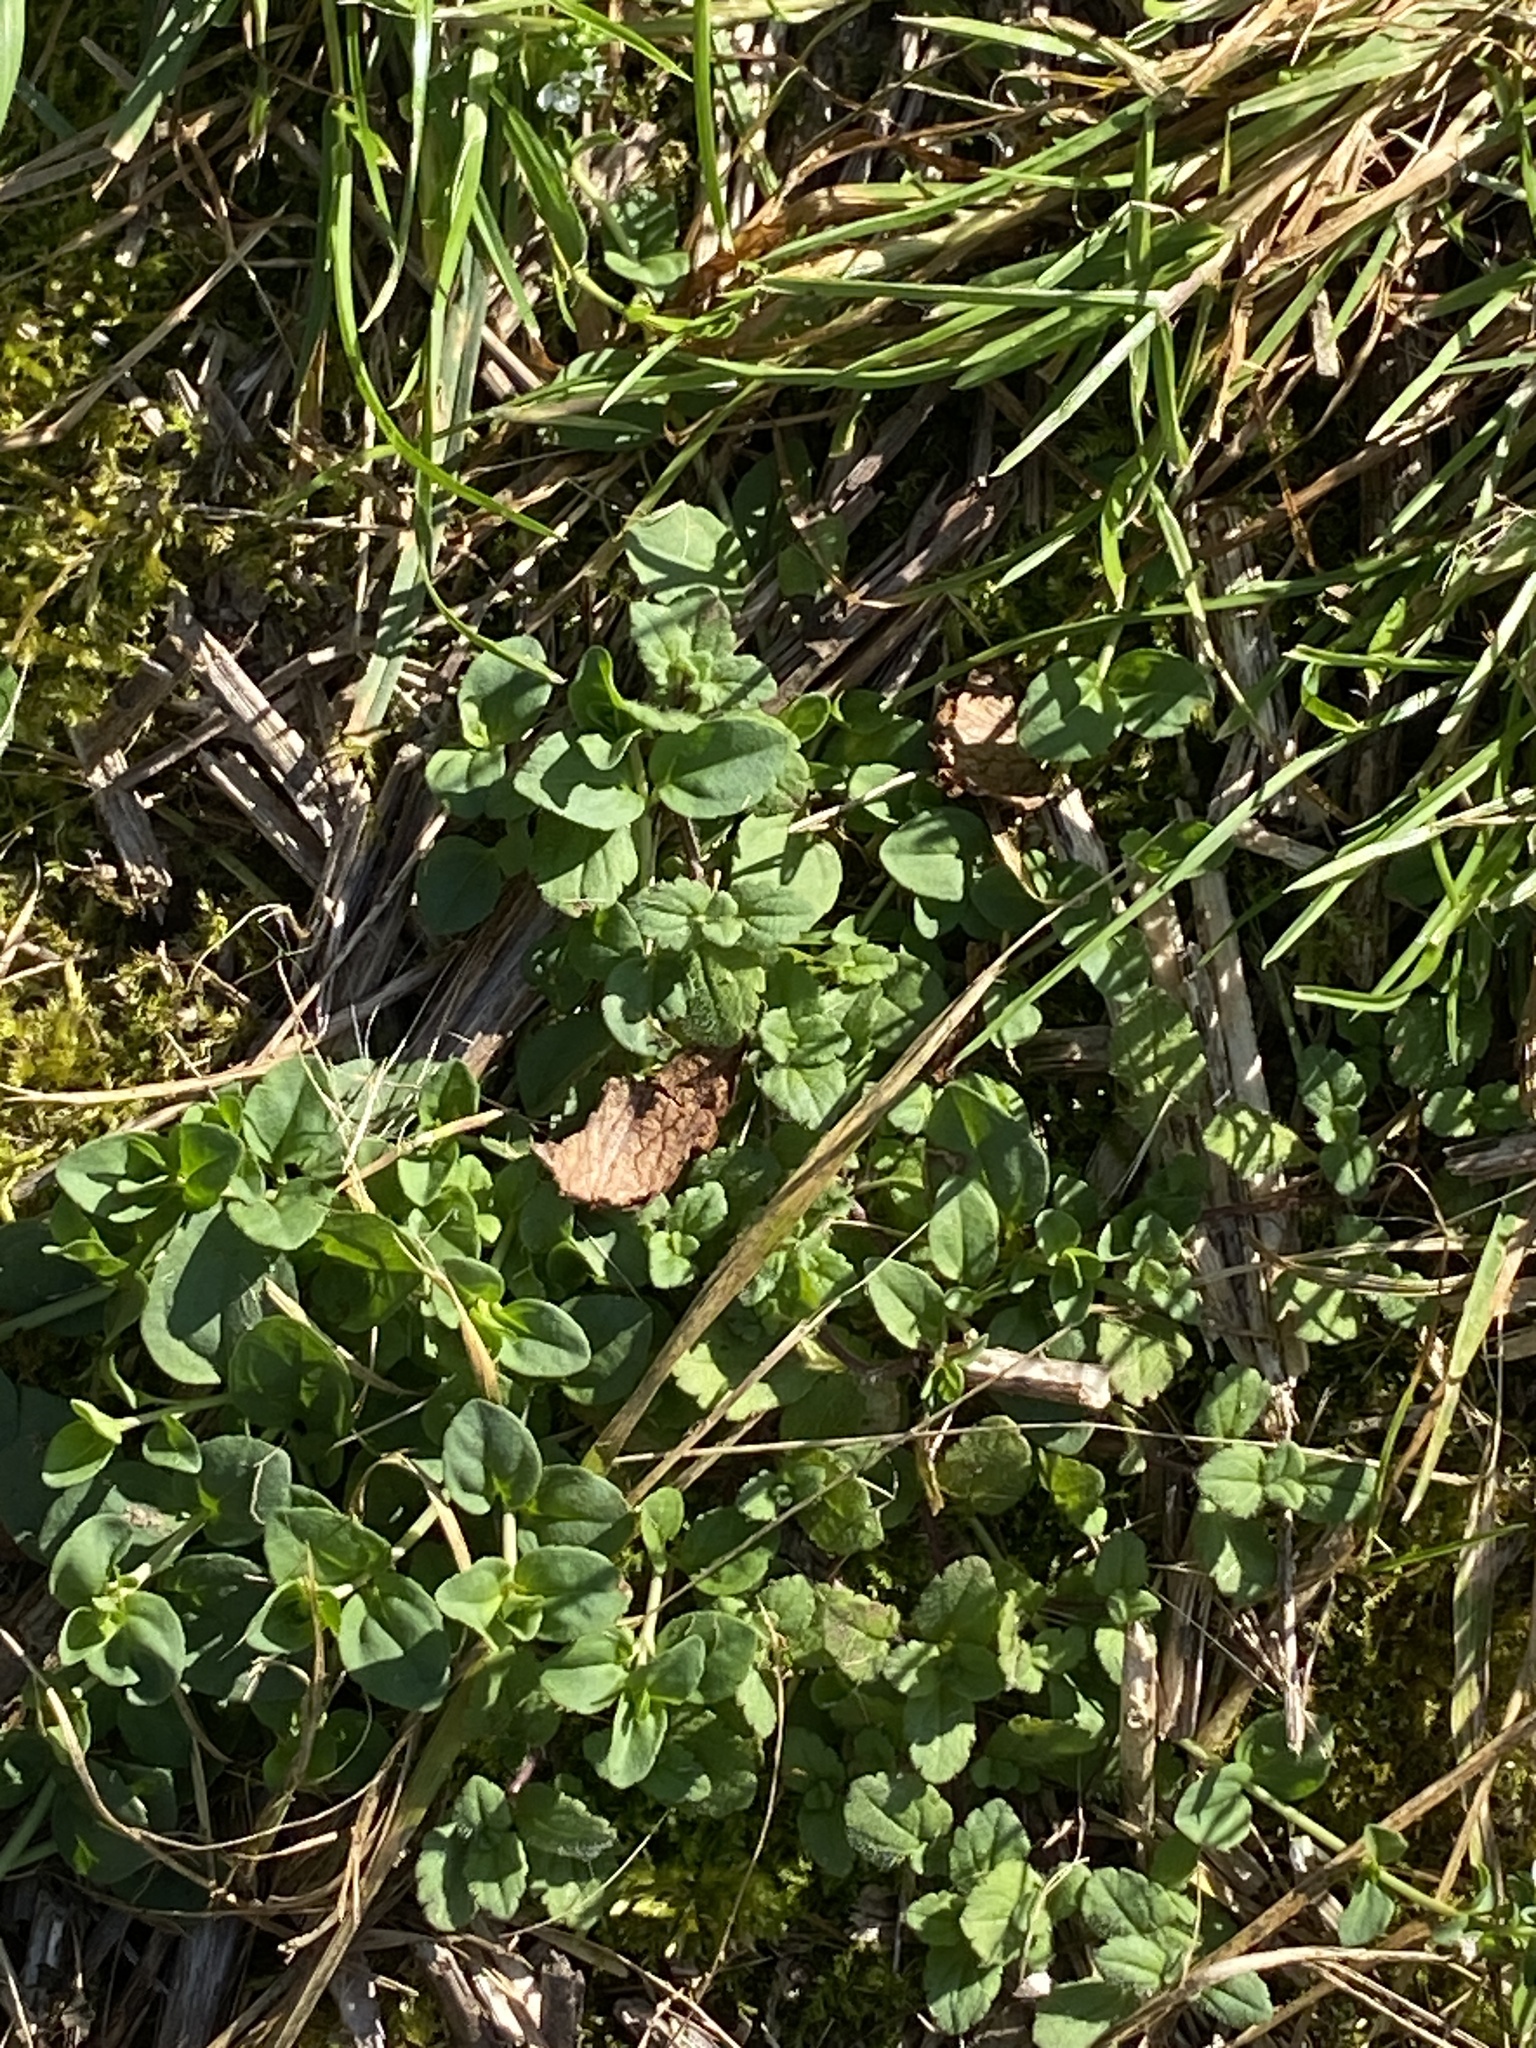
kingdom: Plantae
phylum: Tracheophyta
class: Magnoliopsida
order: Lamiales
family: Plantaginaceae
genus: Veronica
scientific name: Veronica serpyllifolia
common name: Thyme-leaved speedwell
